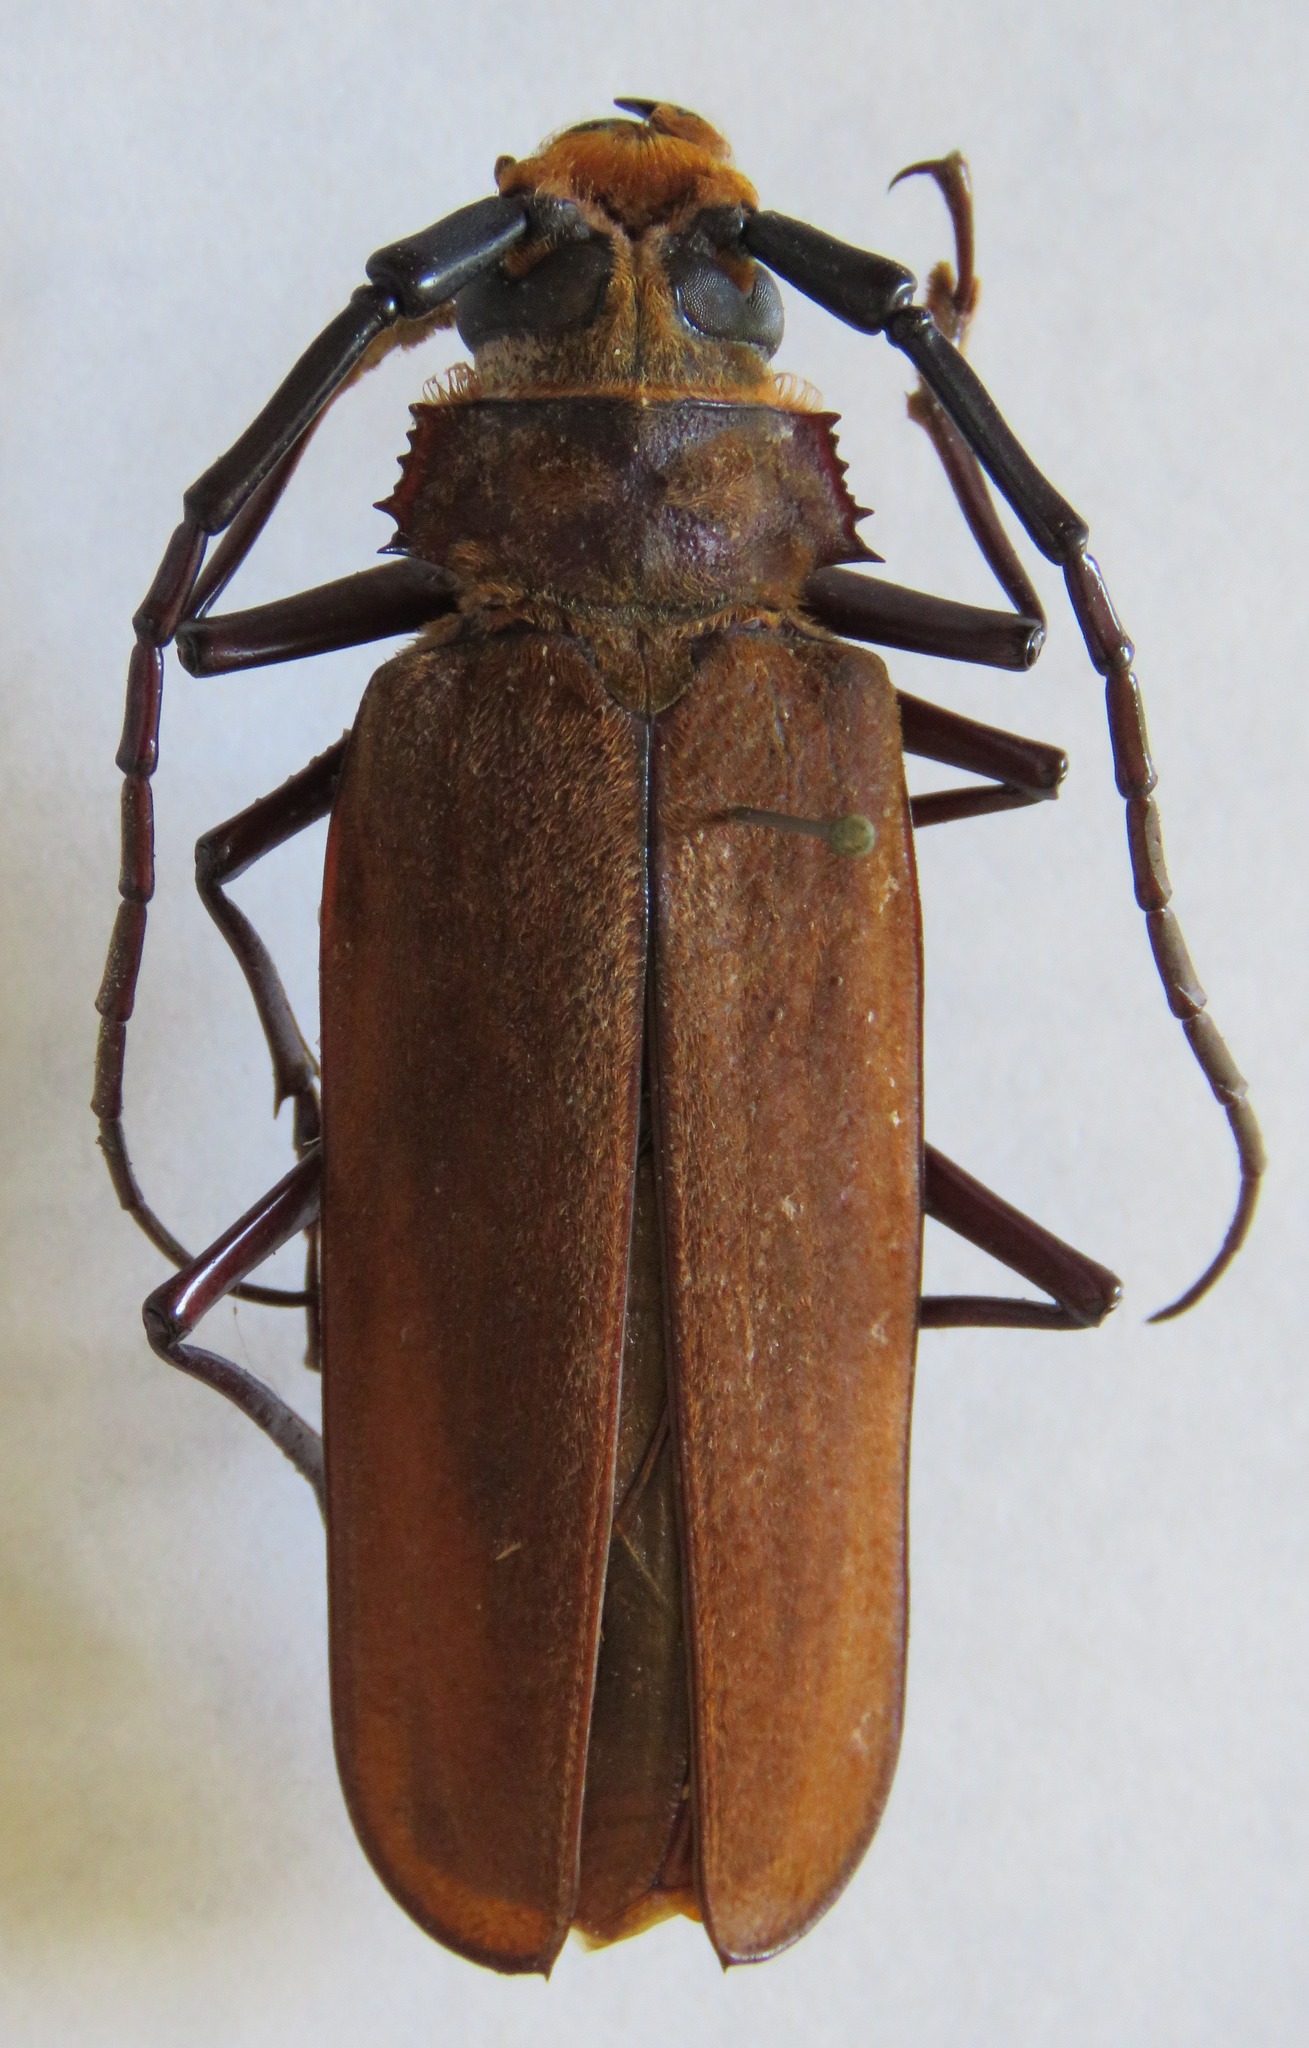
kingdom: Animalia
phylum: Arthropoda
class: Insecta
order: Coleoptera
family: Cerambycidae
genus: Orthomegas
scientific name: Orthomegas fragosoi
